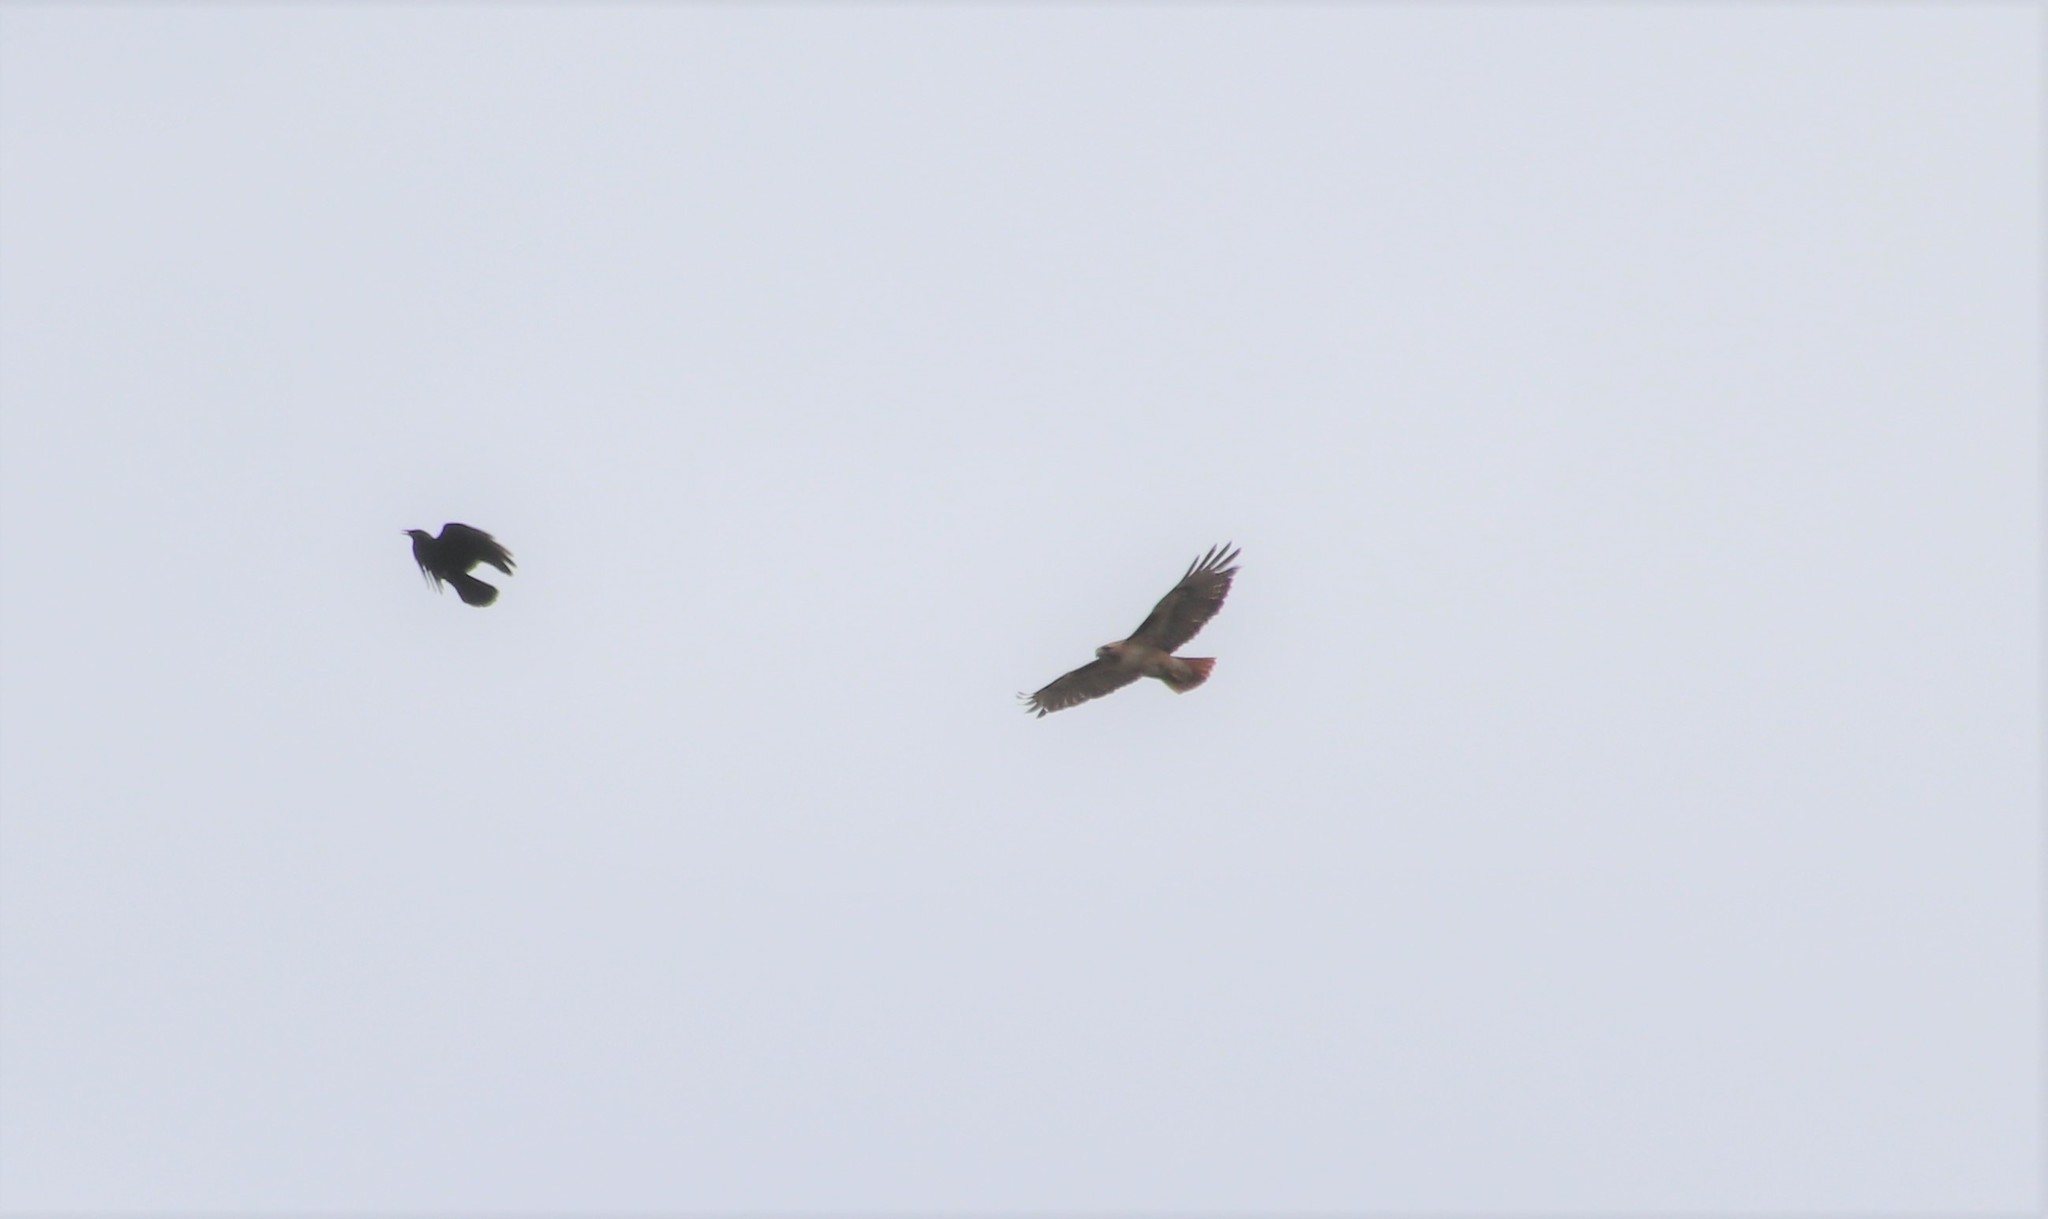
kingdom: Animalia
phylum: Chordata
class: Aves
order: Accipitriformes
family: Accipitridae
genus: Buteo
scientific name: Buteo jamaicensis
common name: Red-tailed hawk
